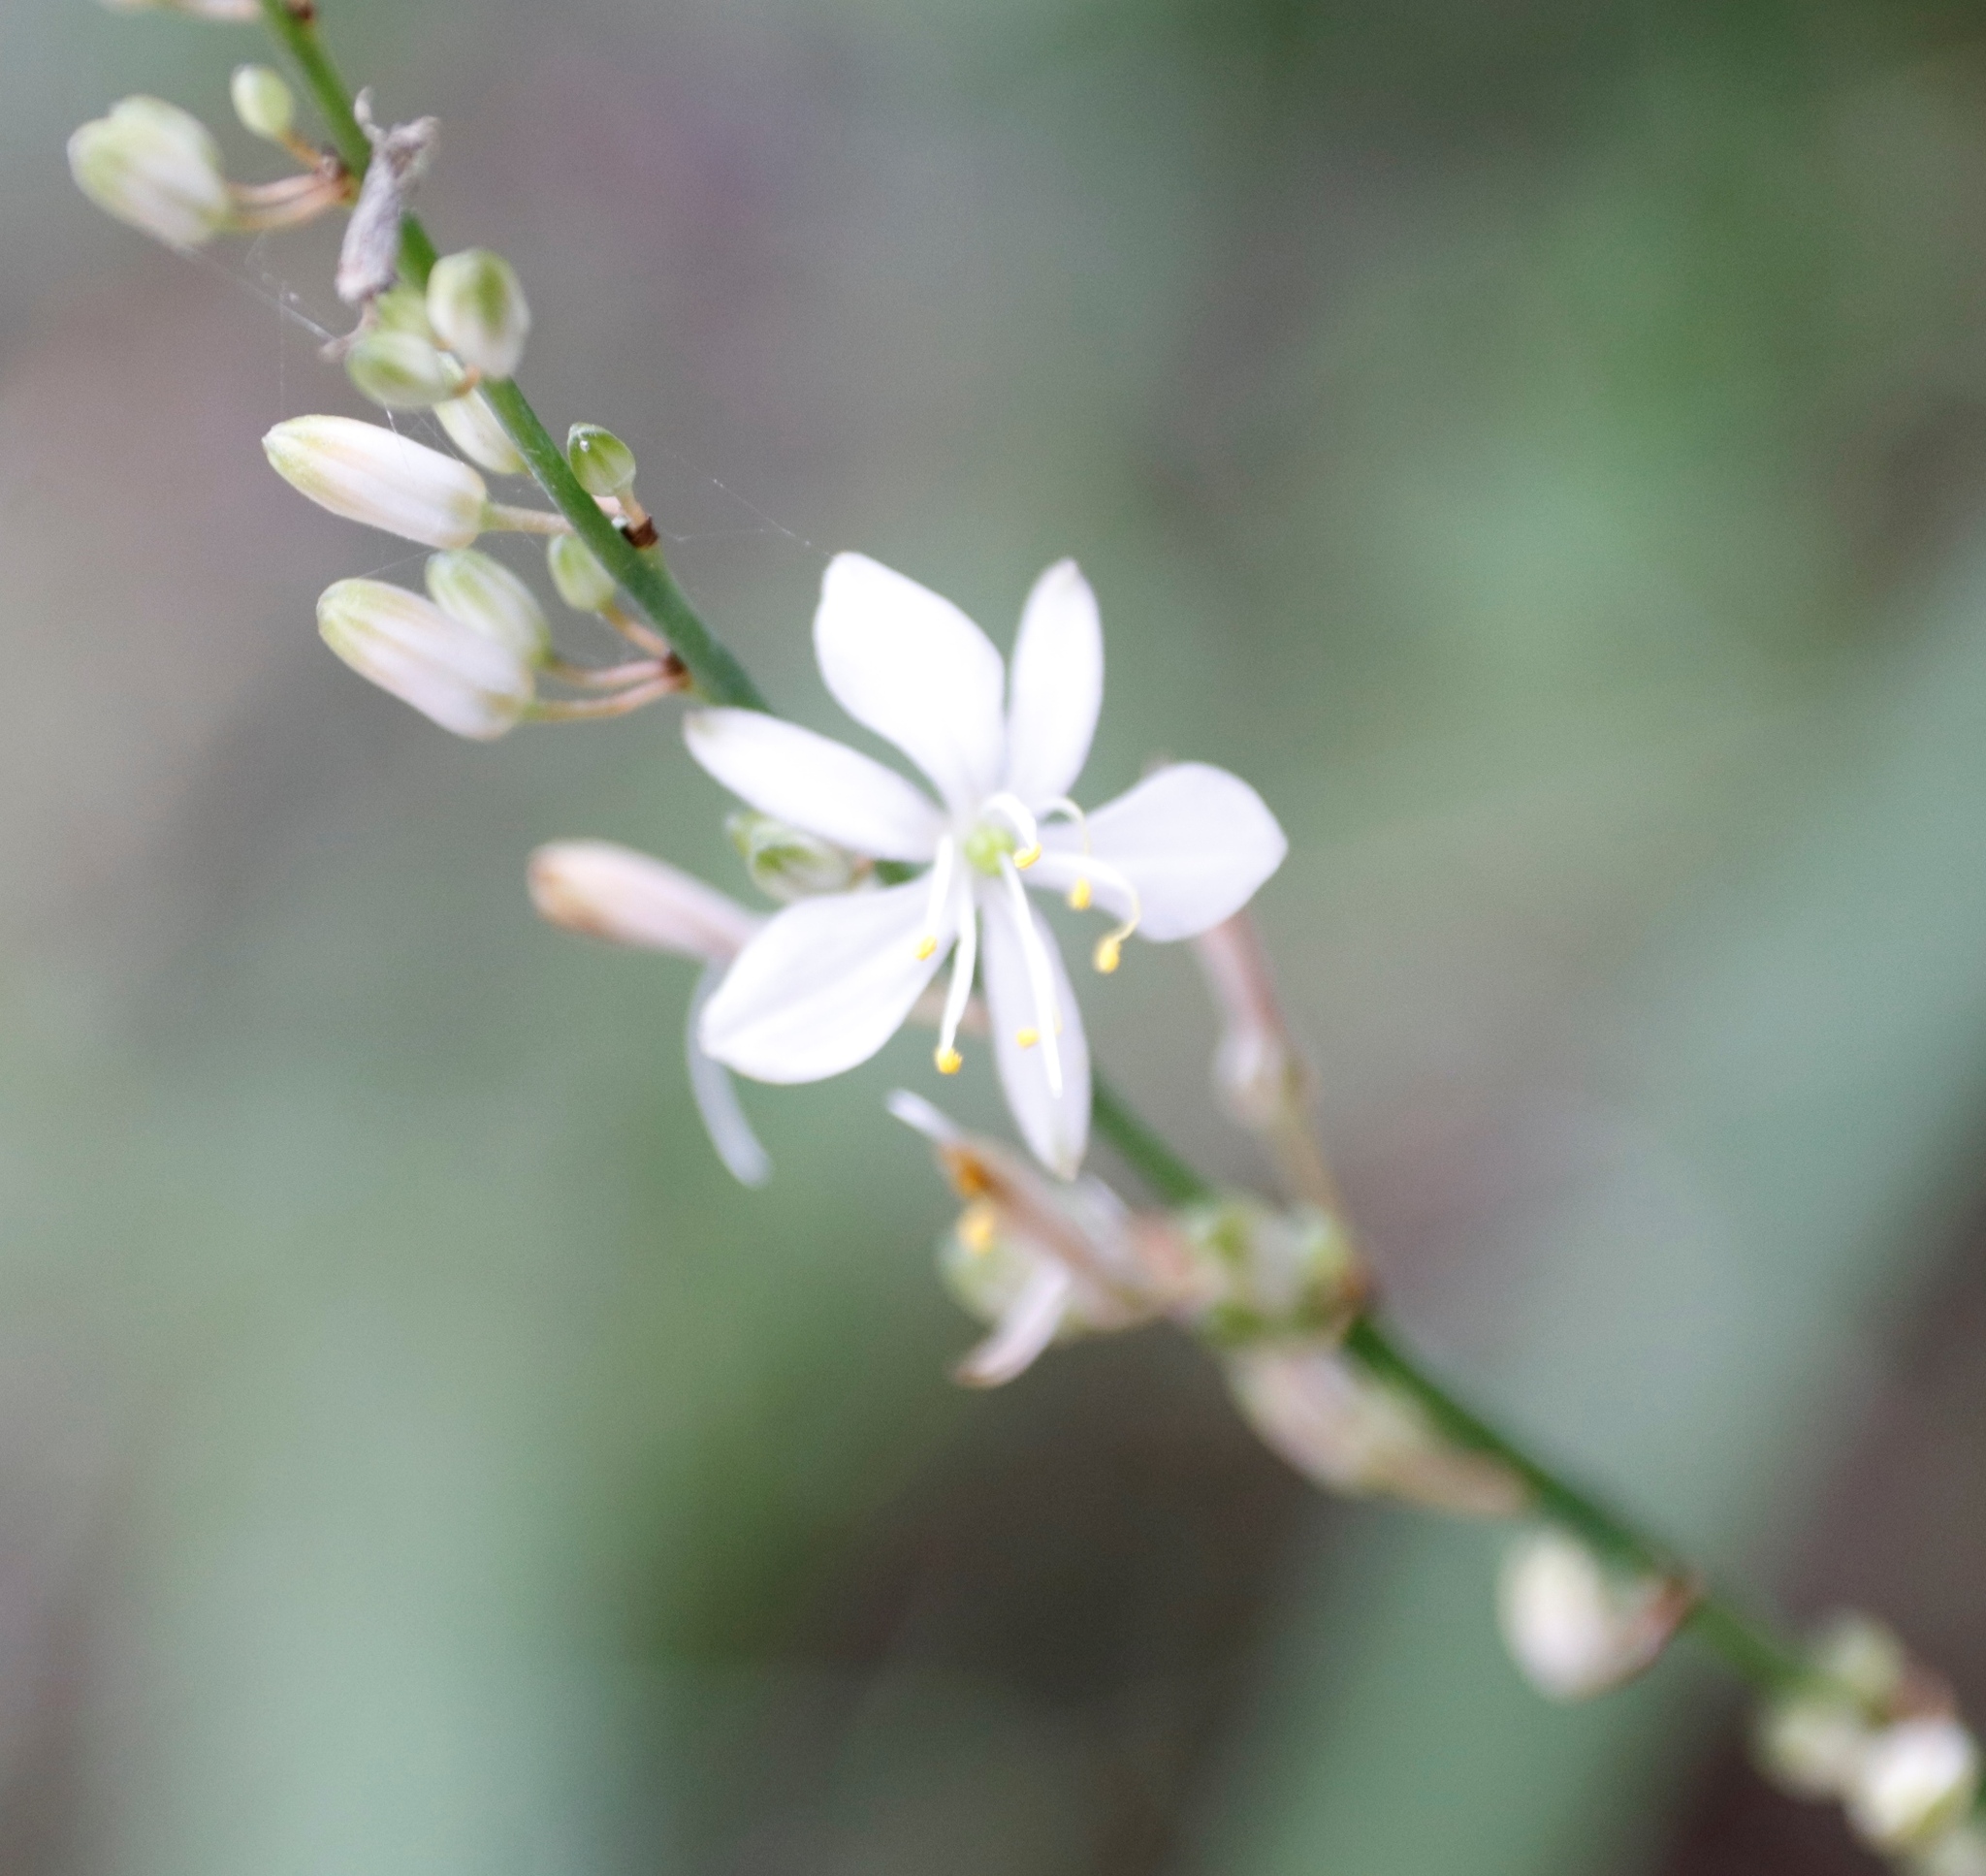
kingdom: Plantae
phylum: Tracheophyta
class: Liliopsida
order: Asparagales
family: Asparagaceae
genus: Chlorophytum
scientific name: Chlorophytum comosum
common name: Spider plant
